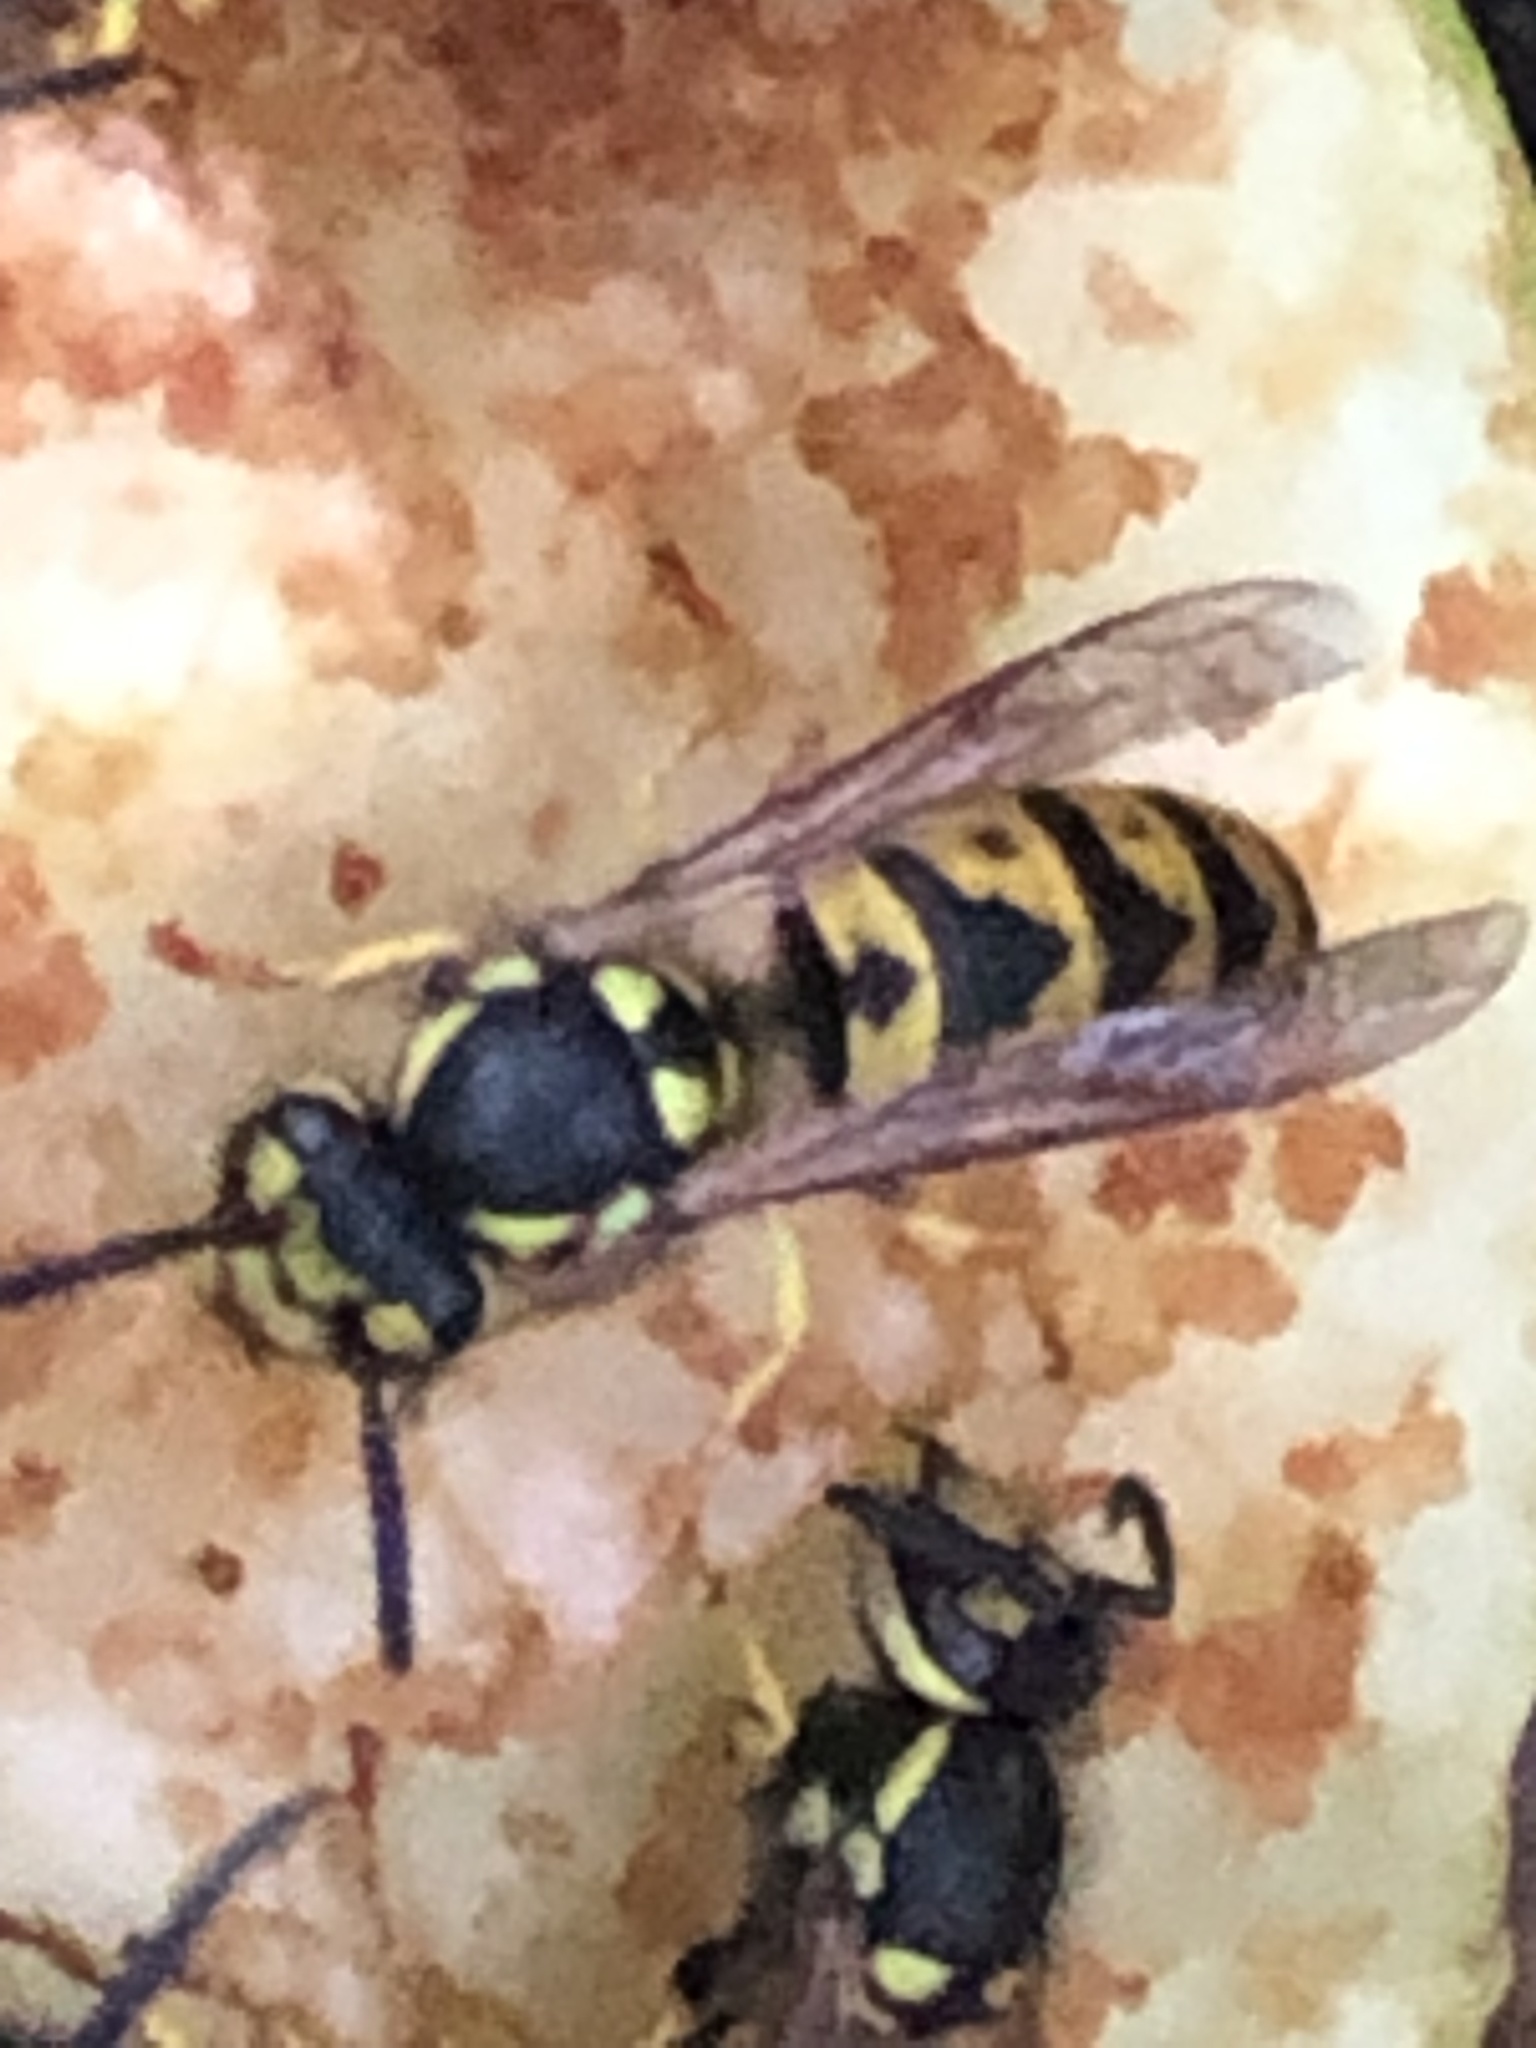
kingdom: Animalia
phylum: Arthropoda
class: Insecta
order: Hymenoptera
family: Vespidae
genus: Vespula
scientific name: Vespula germanica
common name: German wasp
